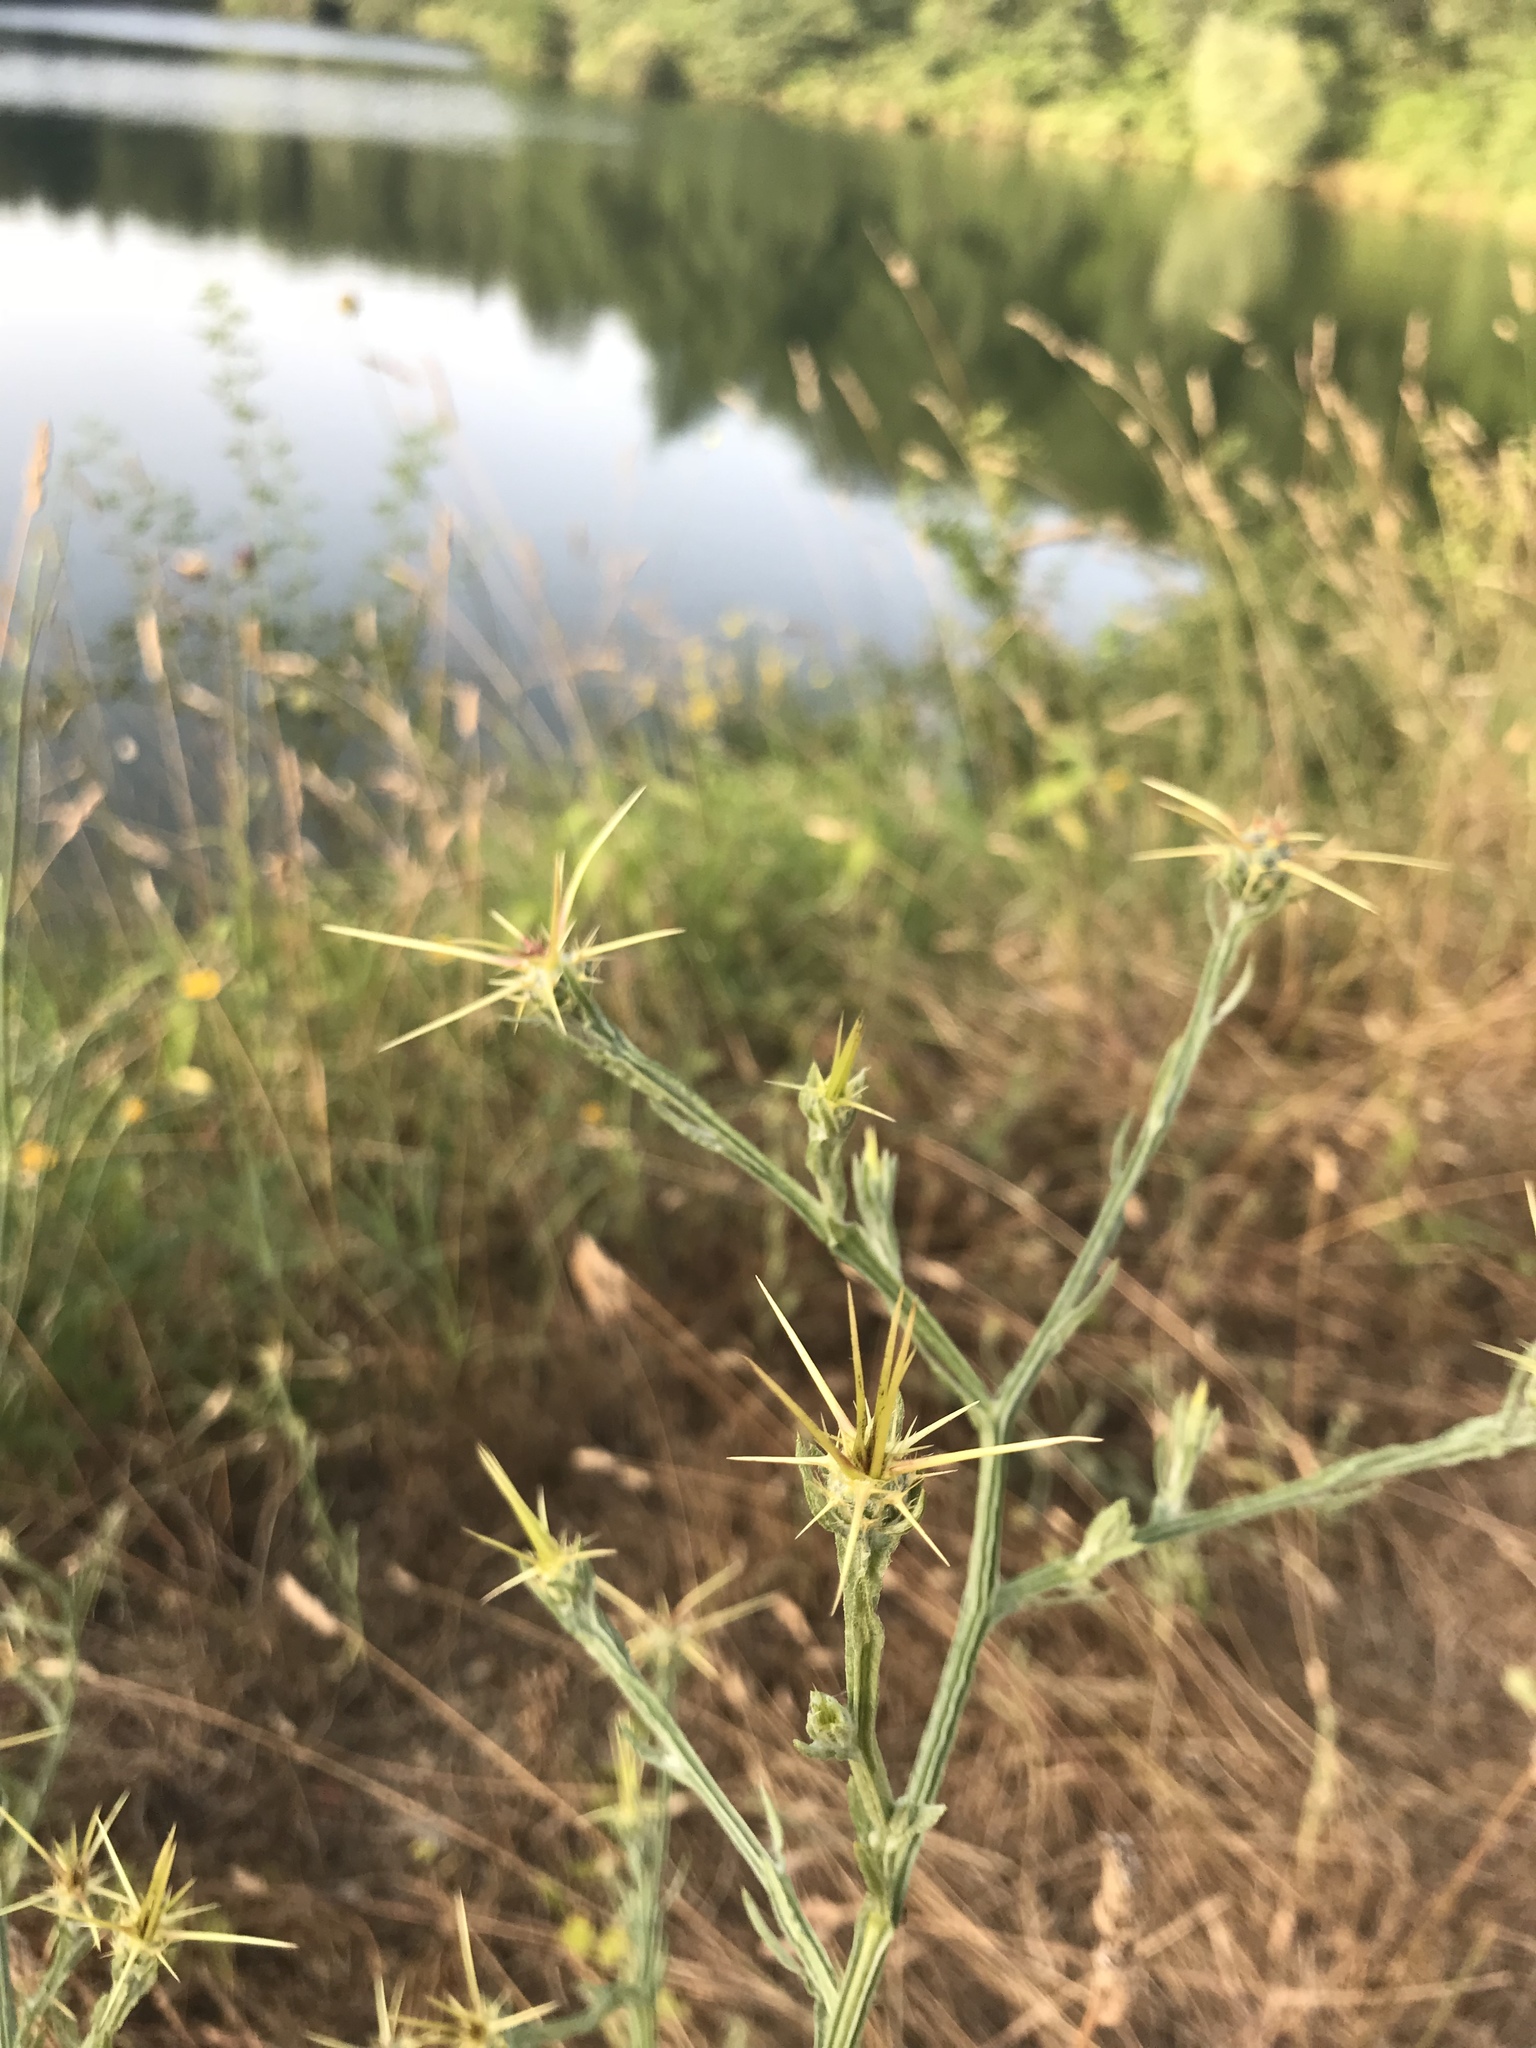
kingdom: Plantae
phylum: Tracheophyta
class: Magnoliopsida
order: Asterales
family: Asteraceae
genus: Centaurea
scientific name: Centaurea solstitialis
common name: Yellow star-thistle
